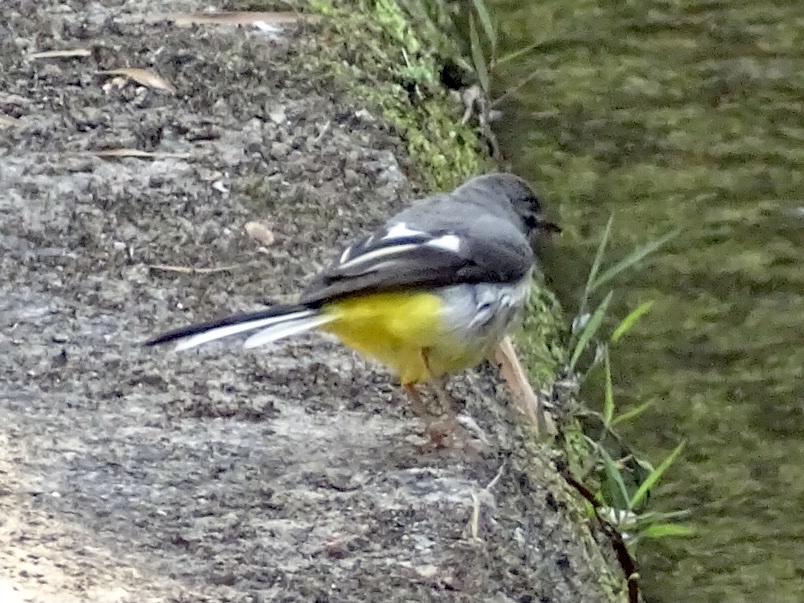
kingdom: Animalia
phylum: Chordata
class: Aves
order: Passeriformes
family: Motacillidae
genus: Motacilla
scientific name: Motacilla cinerea
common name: Grey wagtail
